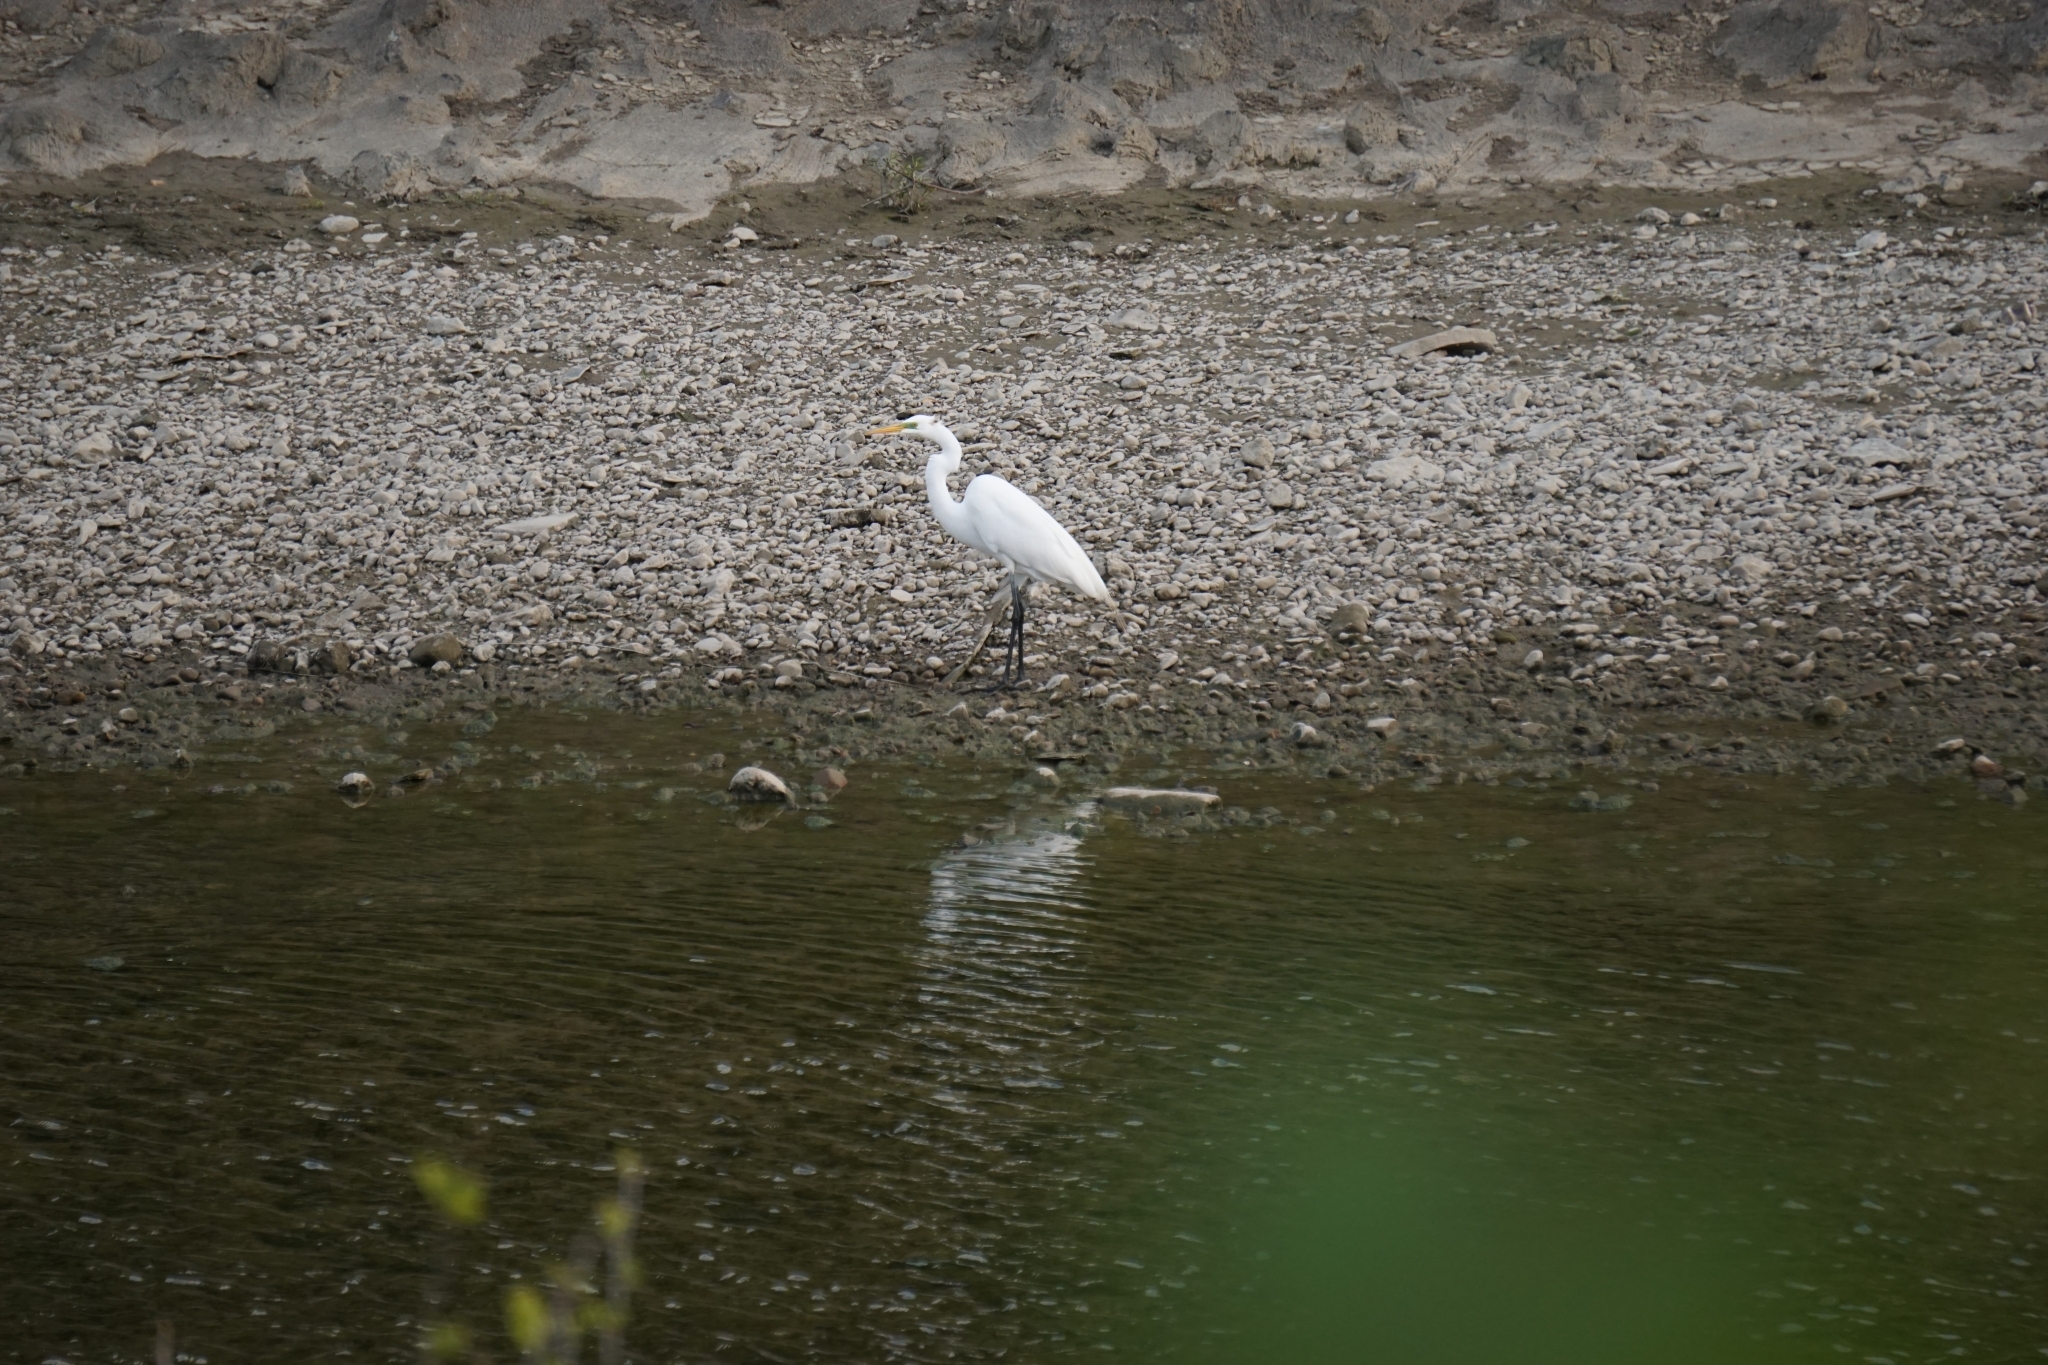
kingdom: Animalia
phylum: Chordata
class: Aves
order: Pelecaniformes
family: Ardeidae
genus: Ardea
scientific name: Ardea alba
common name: Great egret
